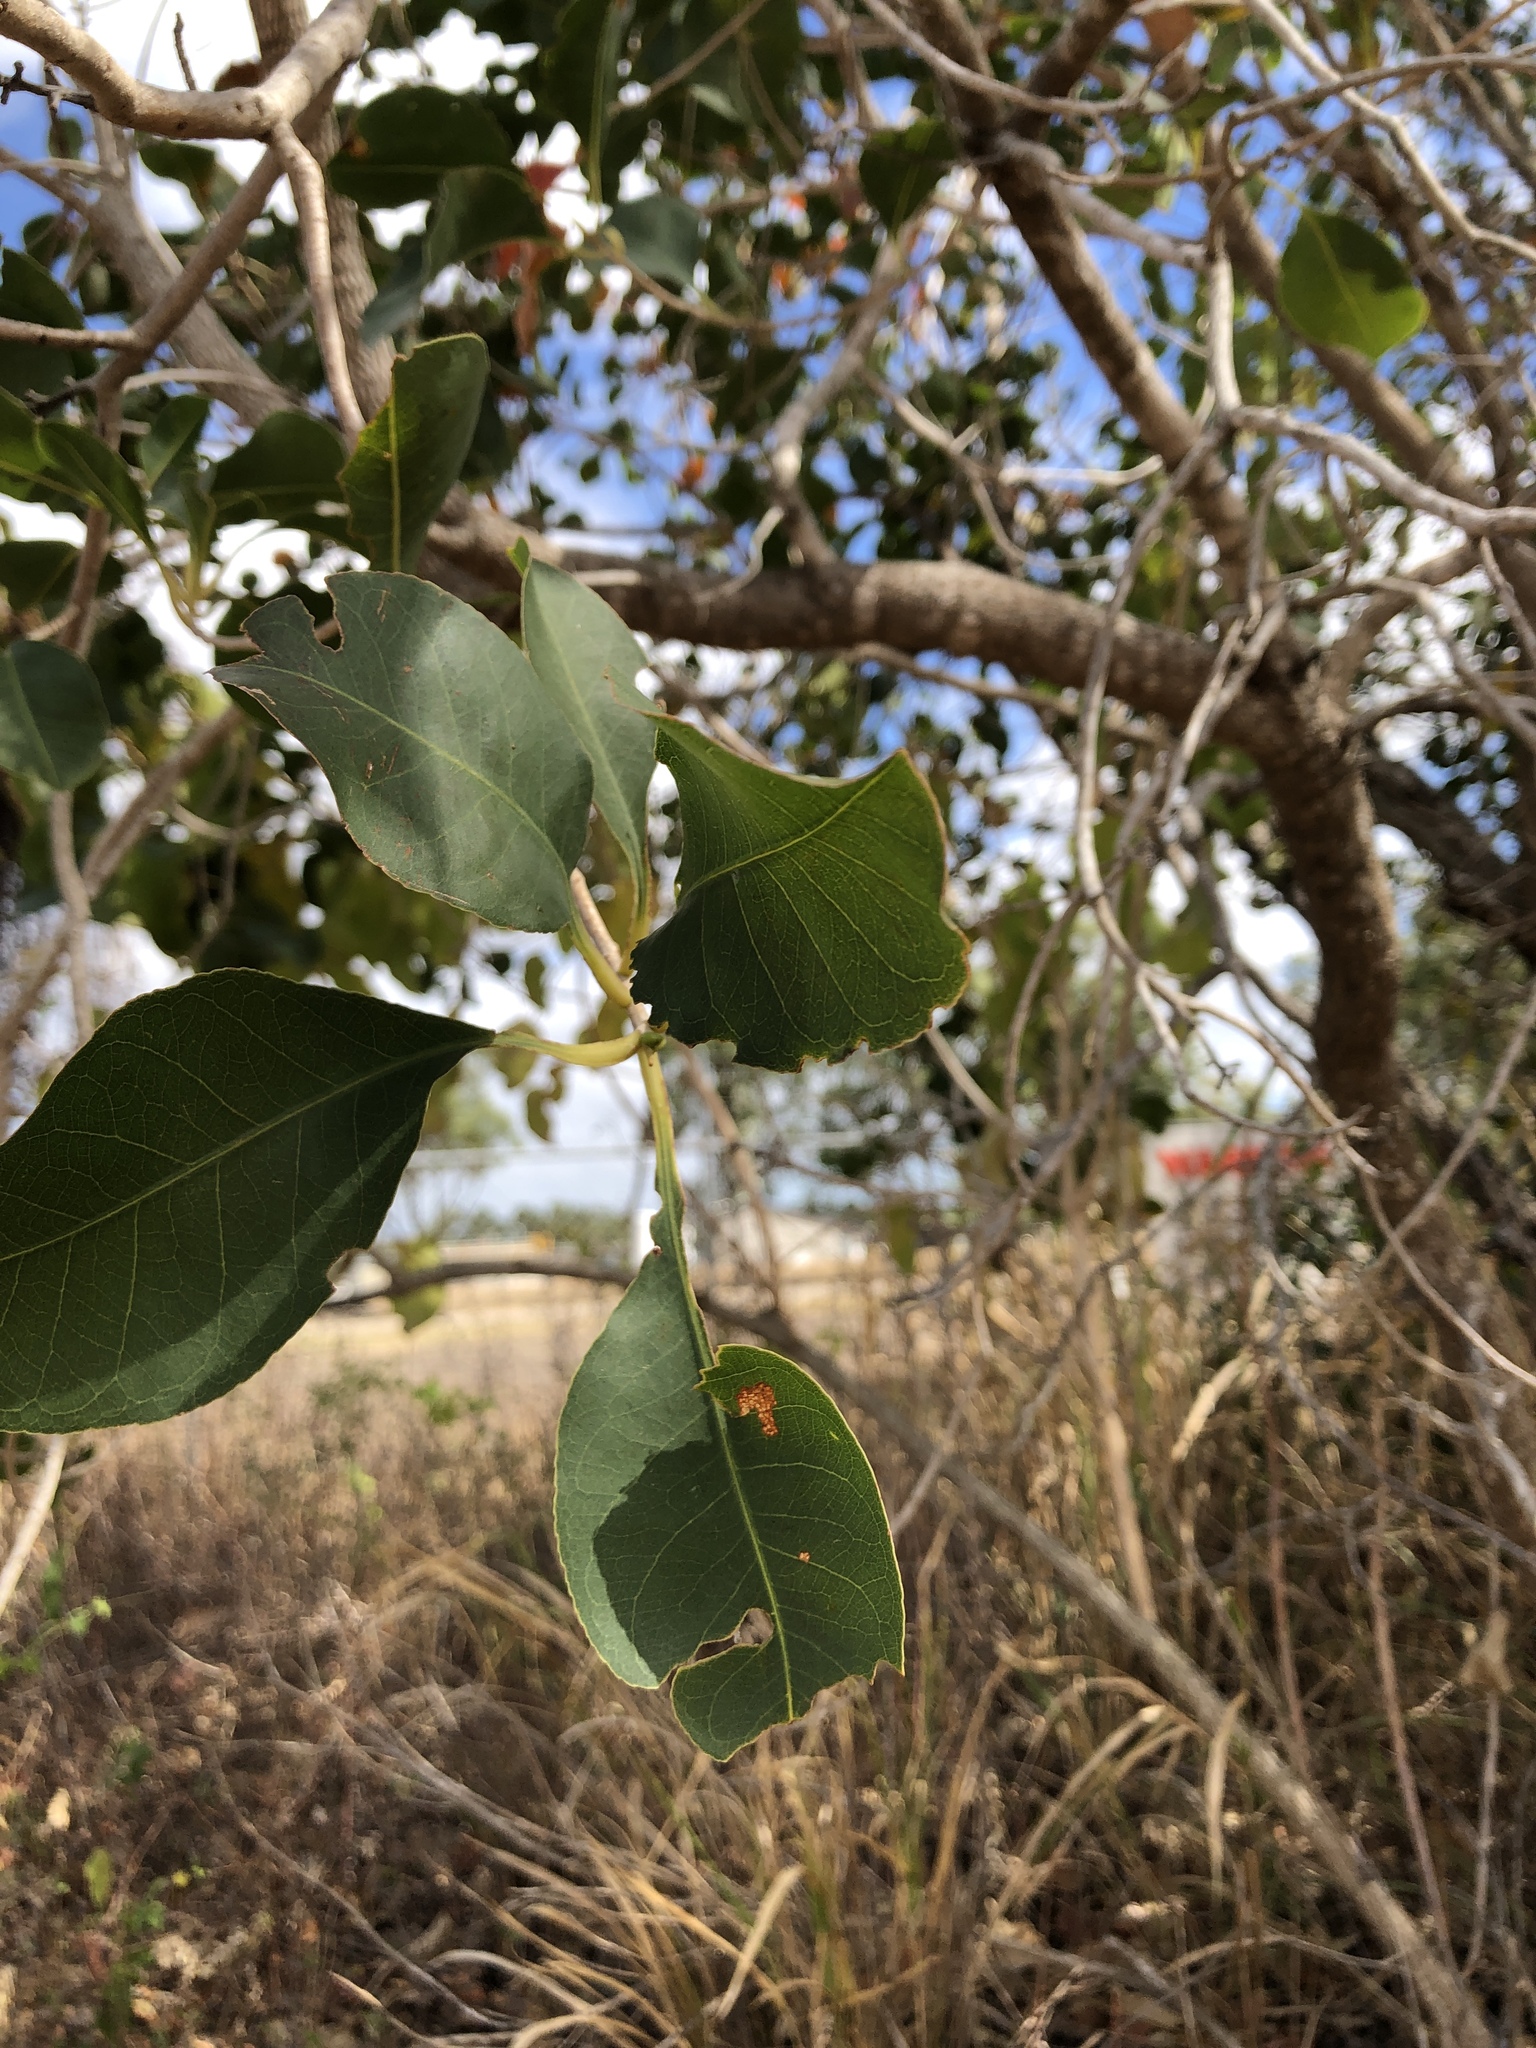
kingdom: Plantae
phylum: Tracheophyta
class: Magnoliopsida
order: Ericales
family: Lecythidaceae
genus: Planchonia
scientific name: Planchonia careya
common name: Cockatoo-apple
